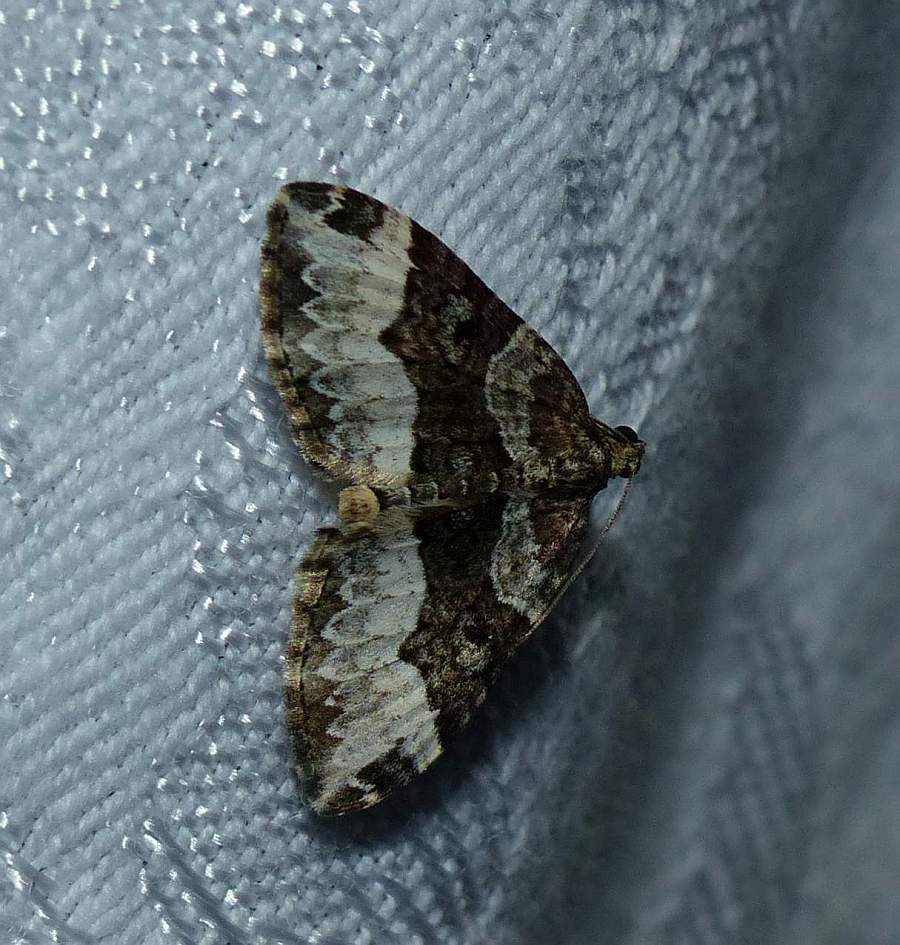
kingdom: Animalia
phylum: Arthropoda
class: Insecta
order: Lepidoptera
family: Geometridae
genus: Euphyia
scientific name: Euphyia intermediata
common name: Sharp-angled carpet
